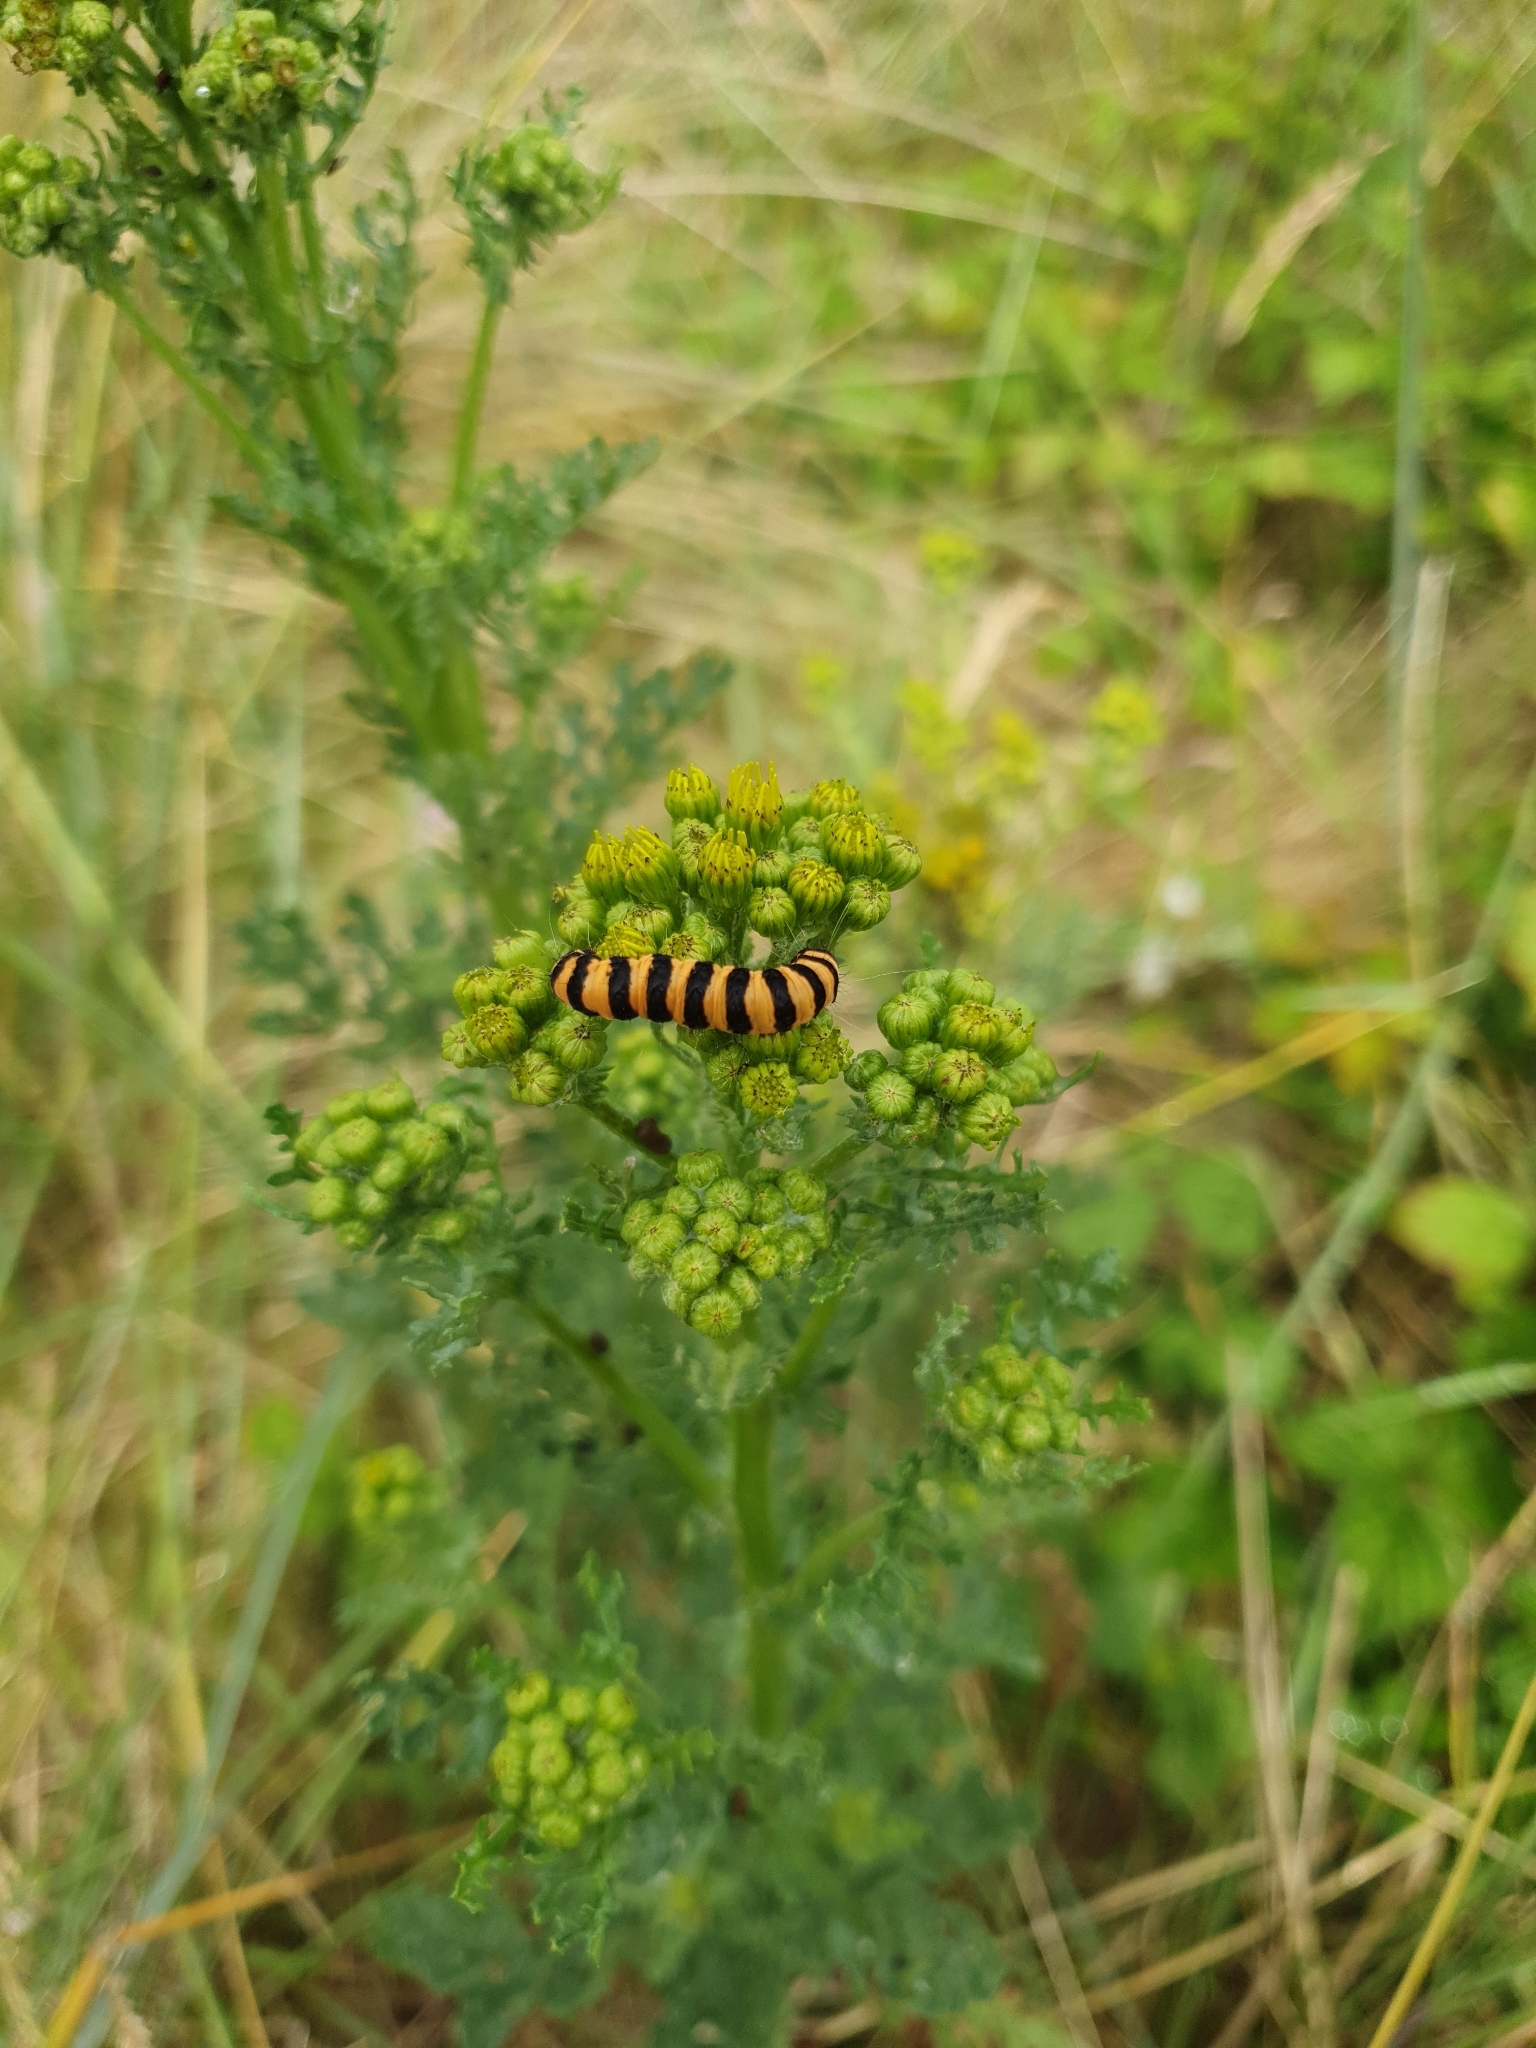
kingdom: Animalia
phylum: Arthropoda
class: Insecta
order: Lepidoptera
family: Erebidae
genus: Tyria
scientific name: Tyria jacobaeae
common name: Cinnabar
